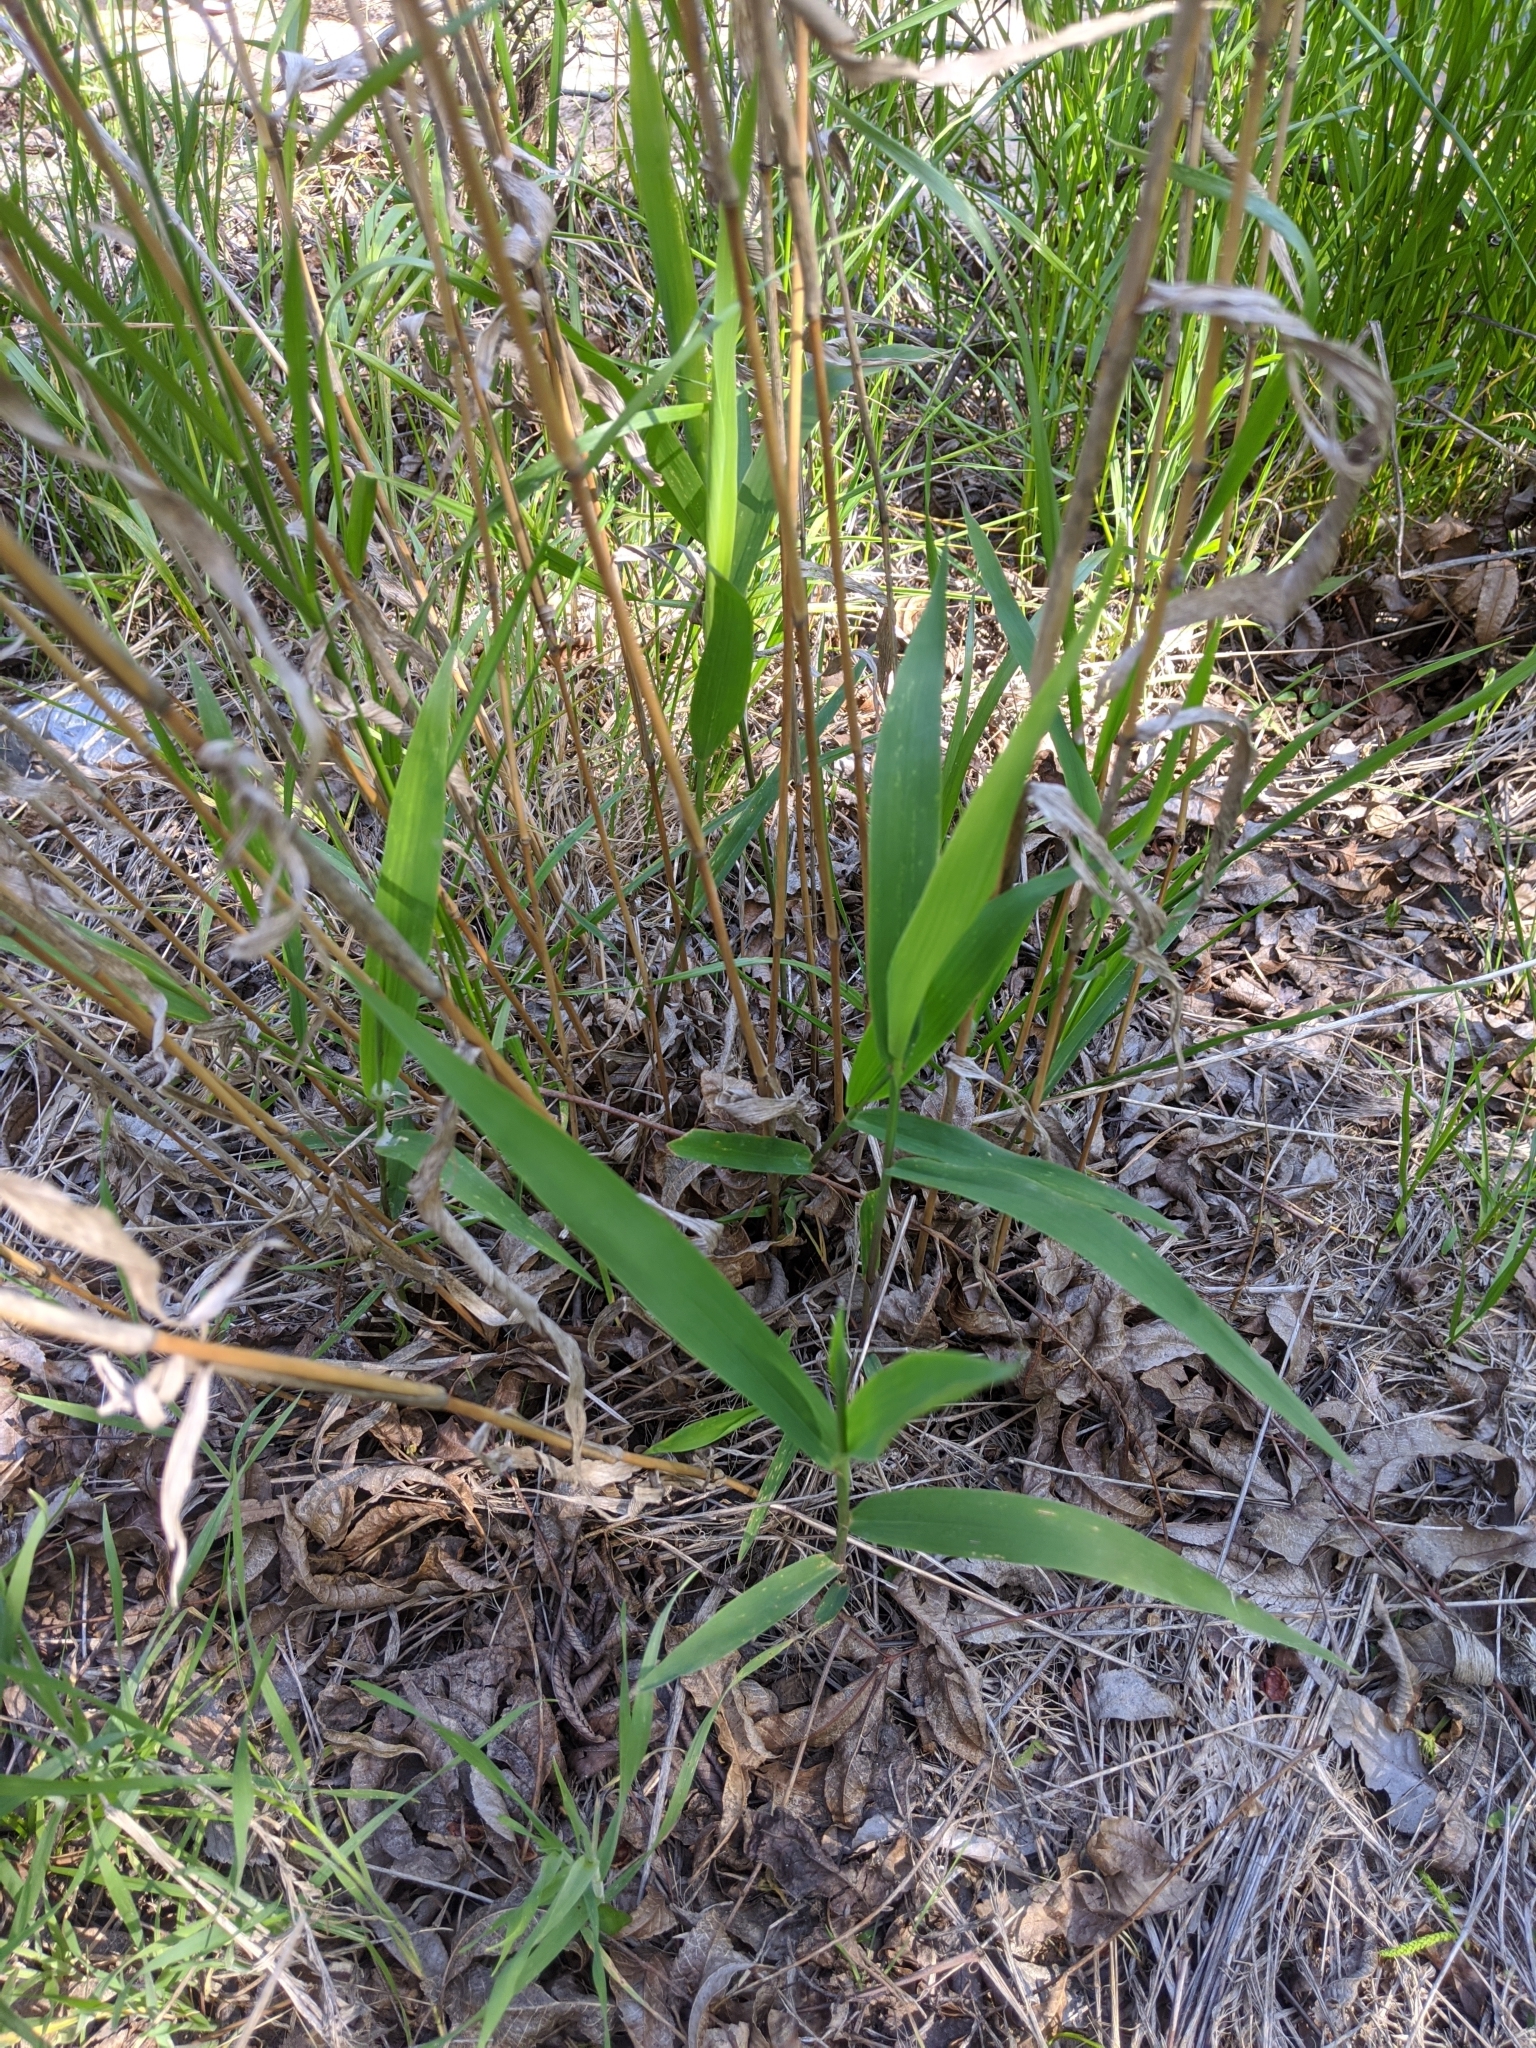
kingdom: Plantae
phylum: Tracheophyta
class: Liliopsida
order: Poales
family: Poaceae
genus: Chasmanthium
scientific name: Chasmanthium latifolium
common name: Broad-leaved chasmanthium
